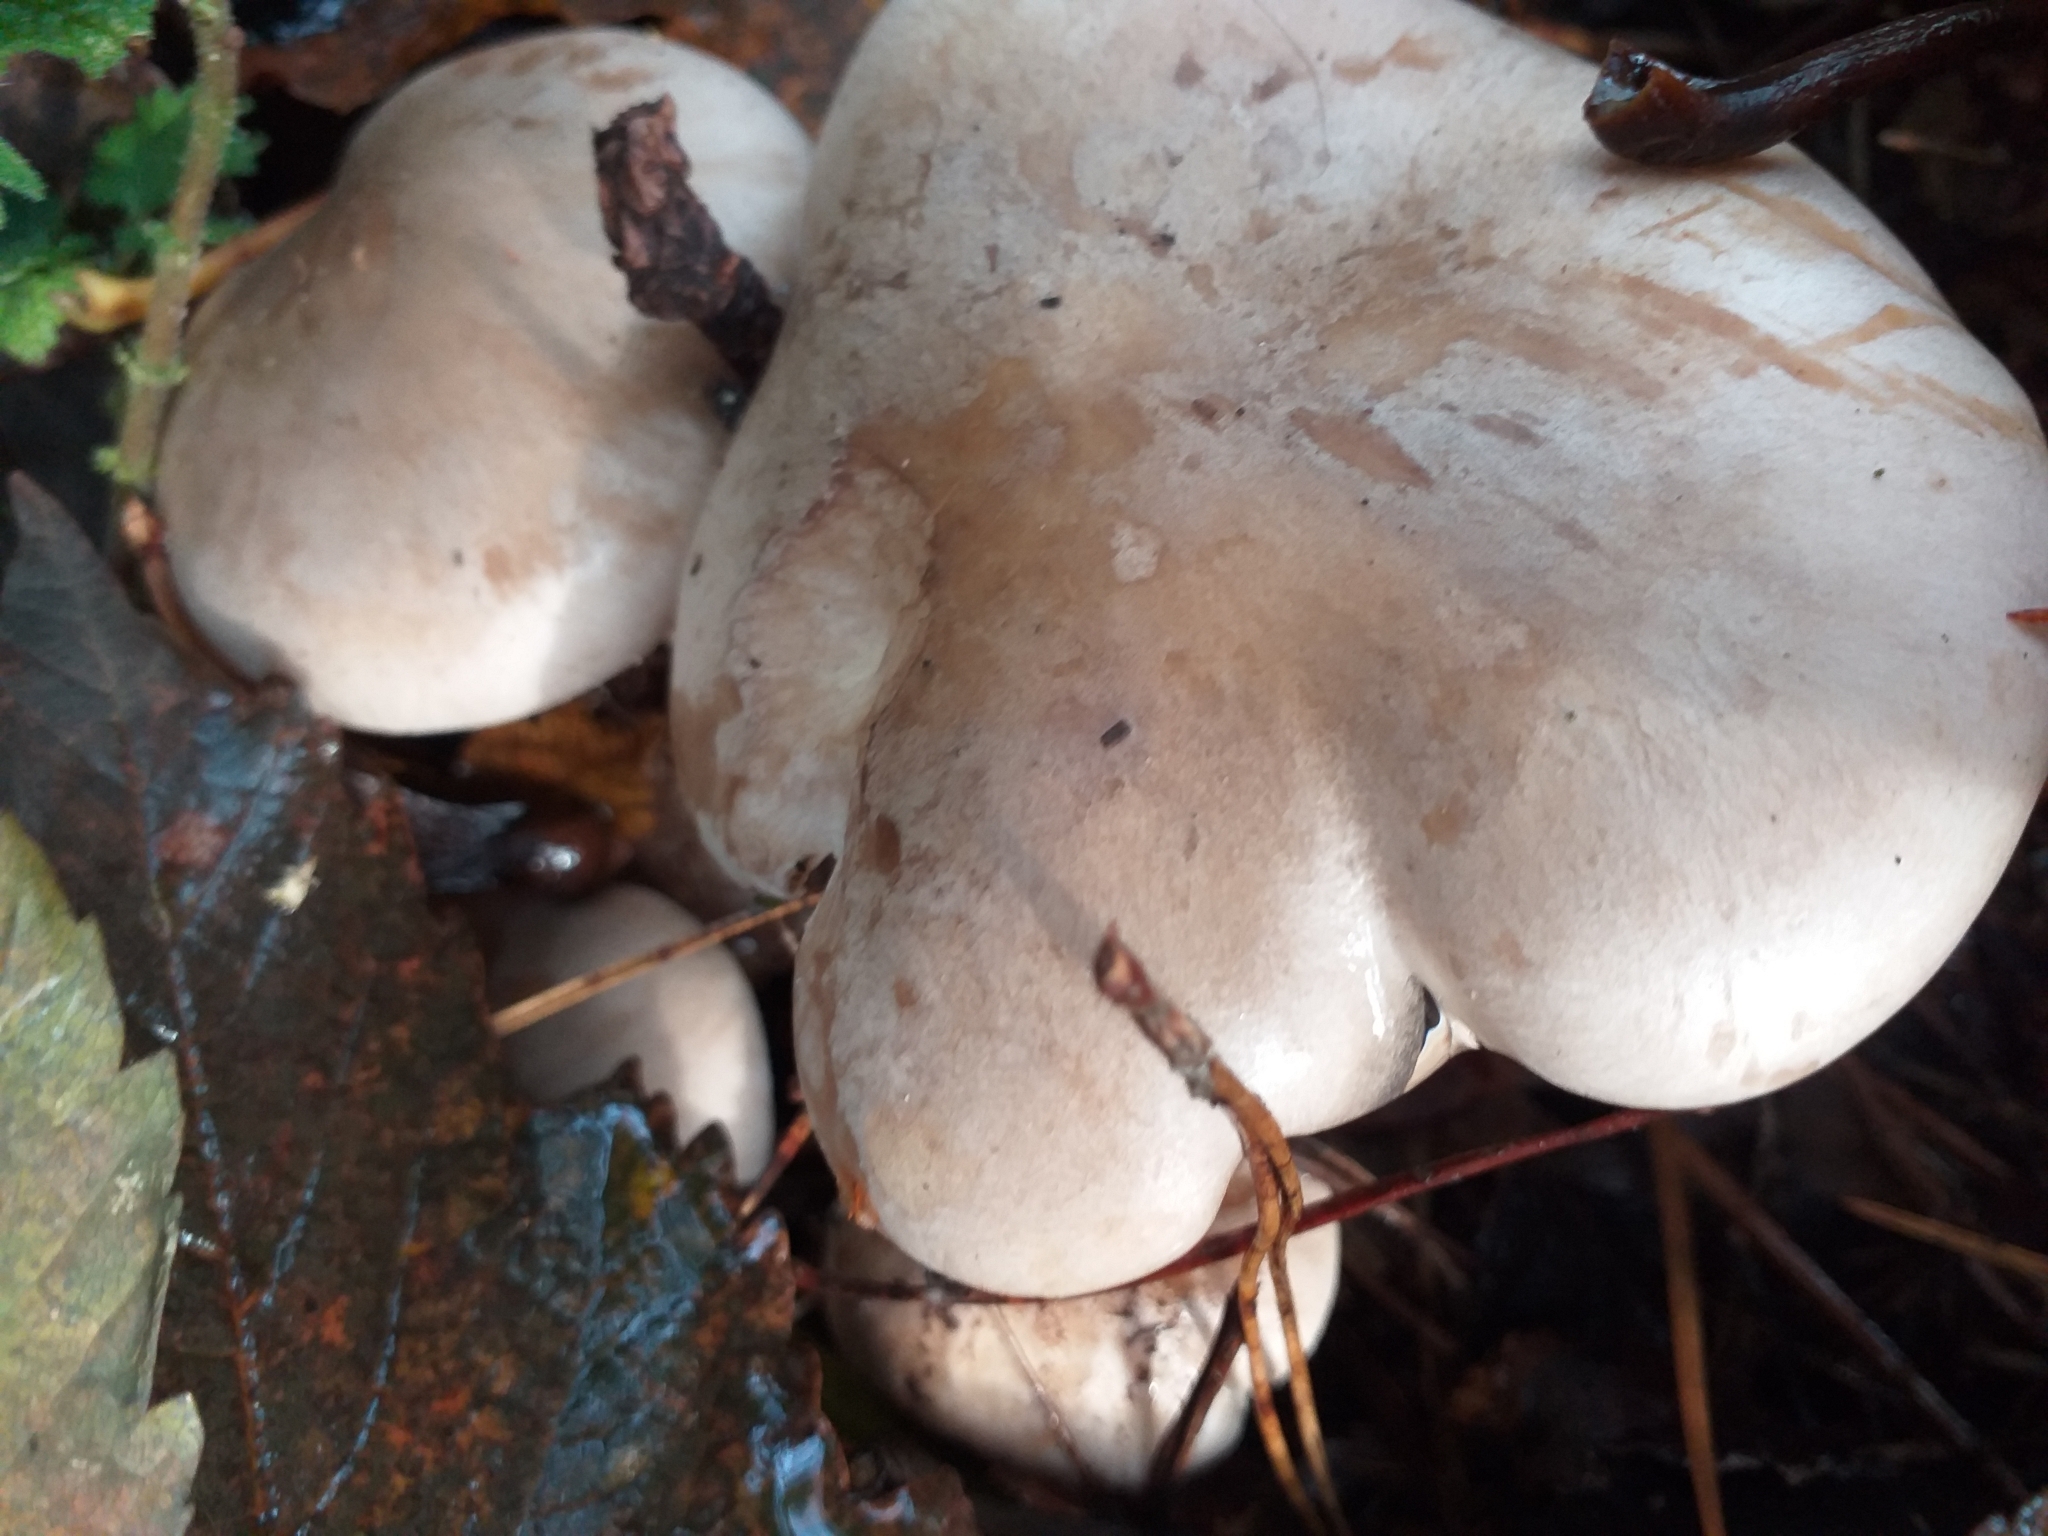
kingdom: Fungi
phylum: Basidiomycota
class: Agaricomycetes
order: Agaricales
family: Tricholomataceae
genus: Clitocybe
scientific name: Clitocybe nebularis
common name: Clouded agaric
